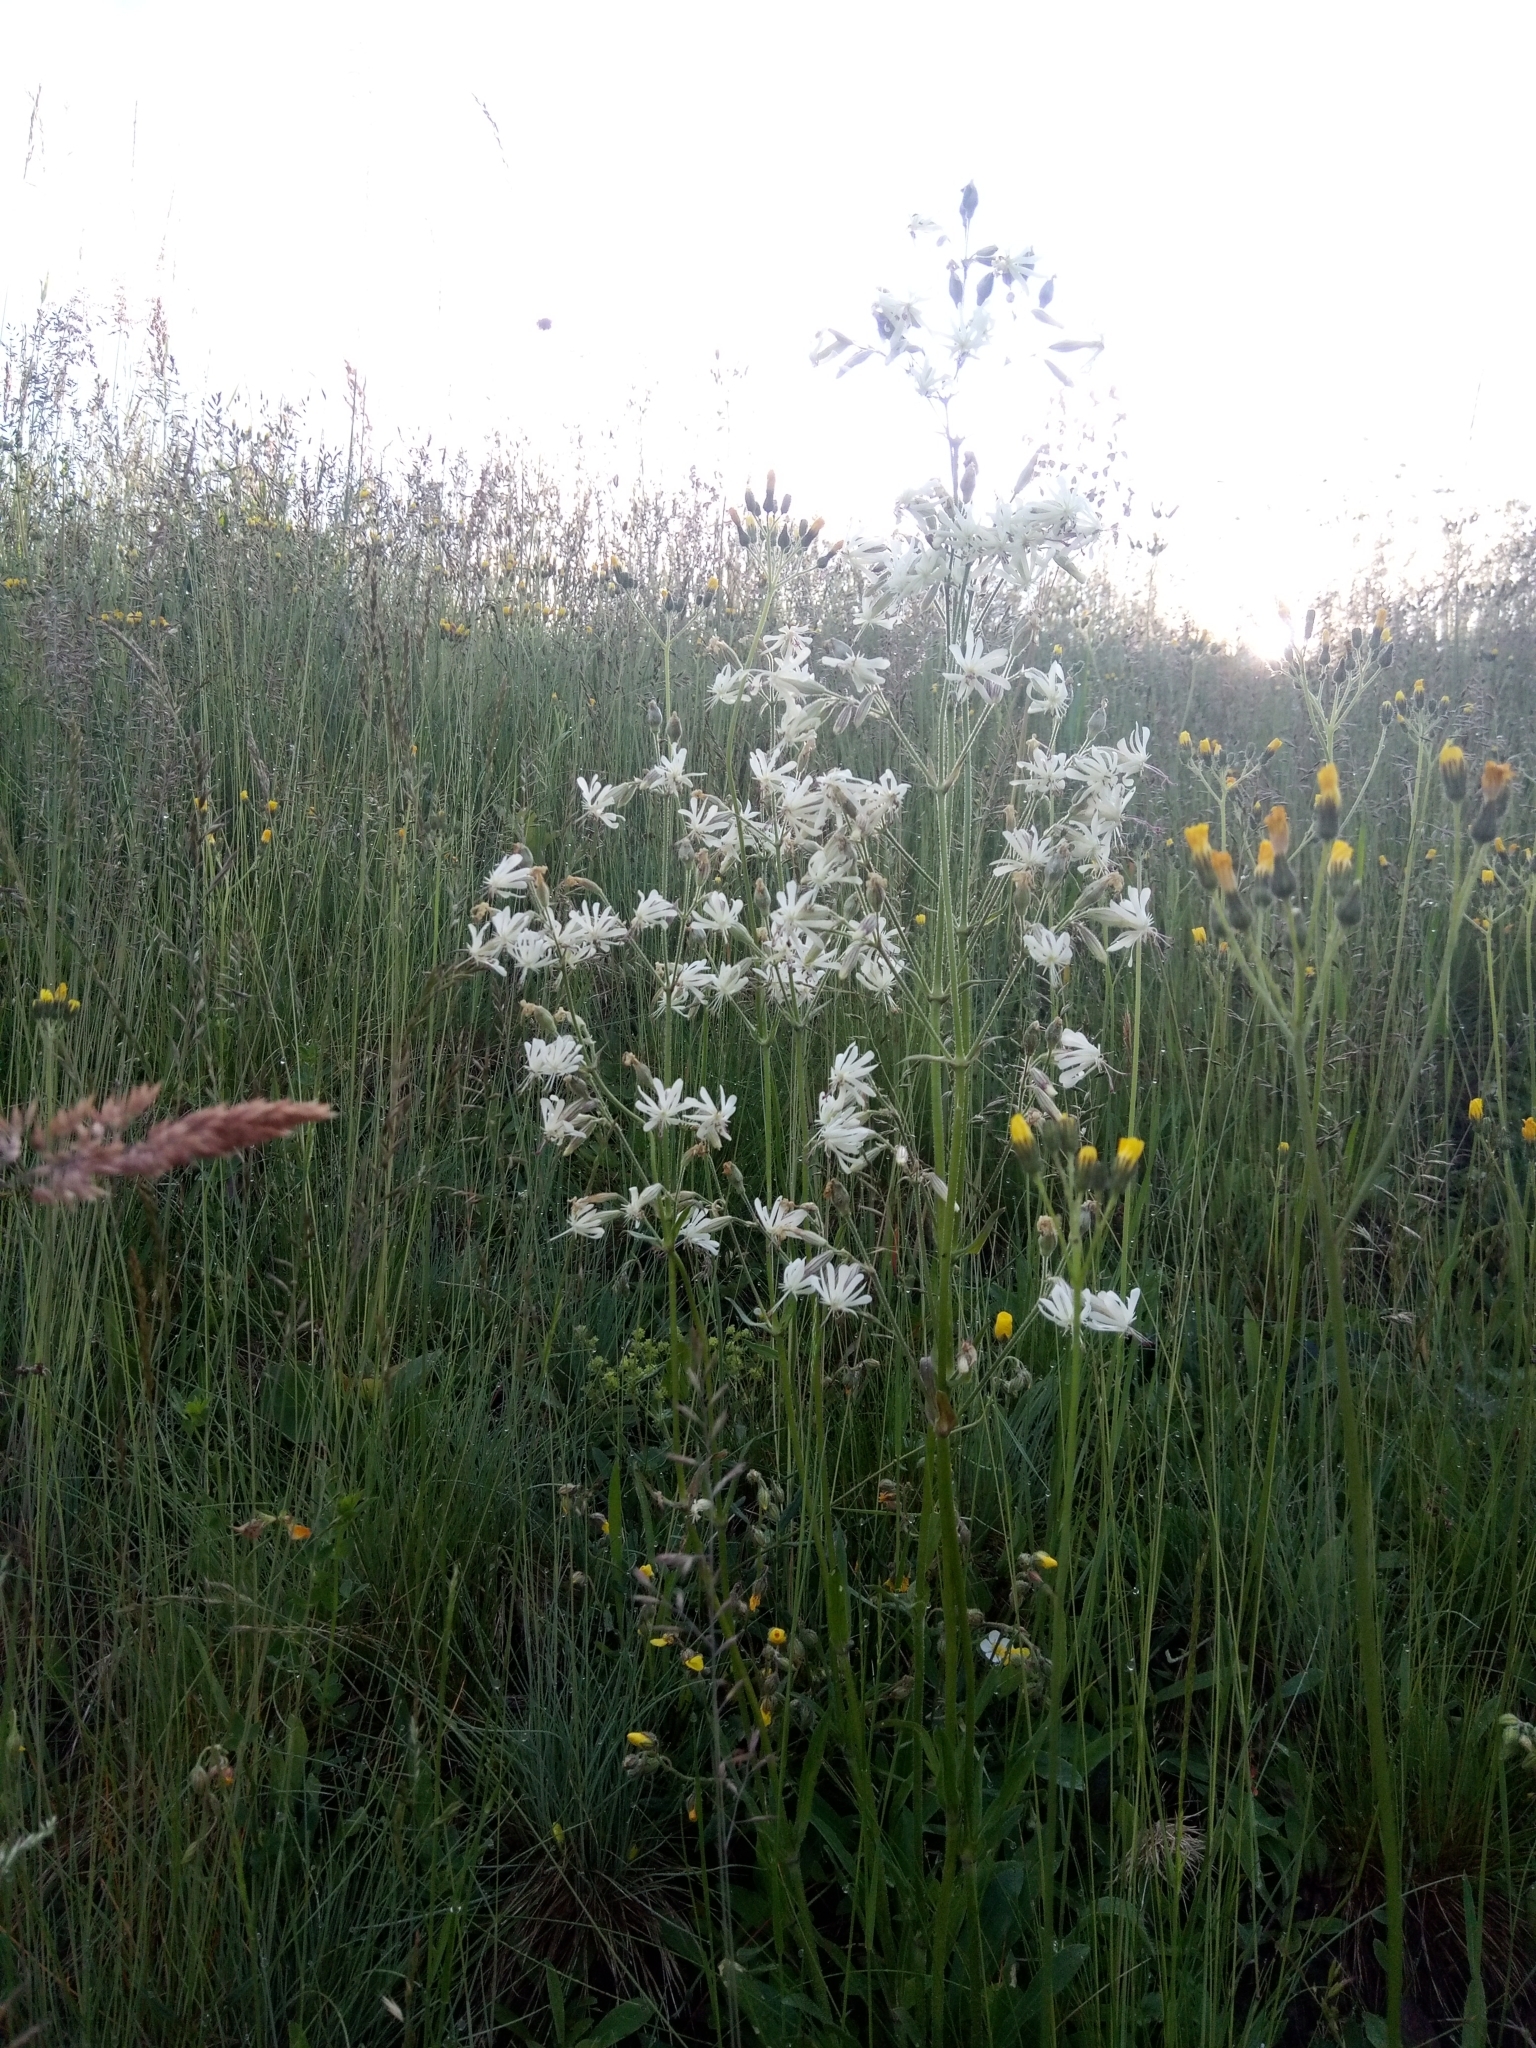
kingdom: Plantae
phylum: Tracheophyta
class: Magnoliopsida
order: Caryophyllales
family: Caryophyllaceae
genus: Silene
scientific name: Silene nutans
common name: Nottingham catchfly
